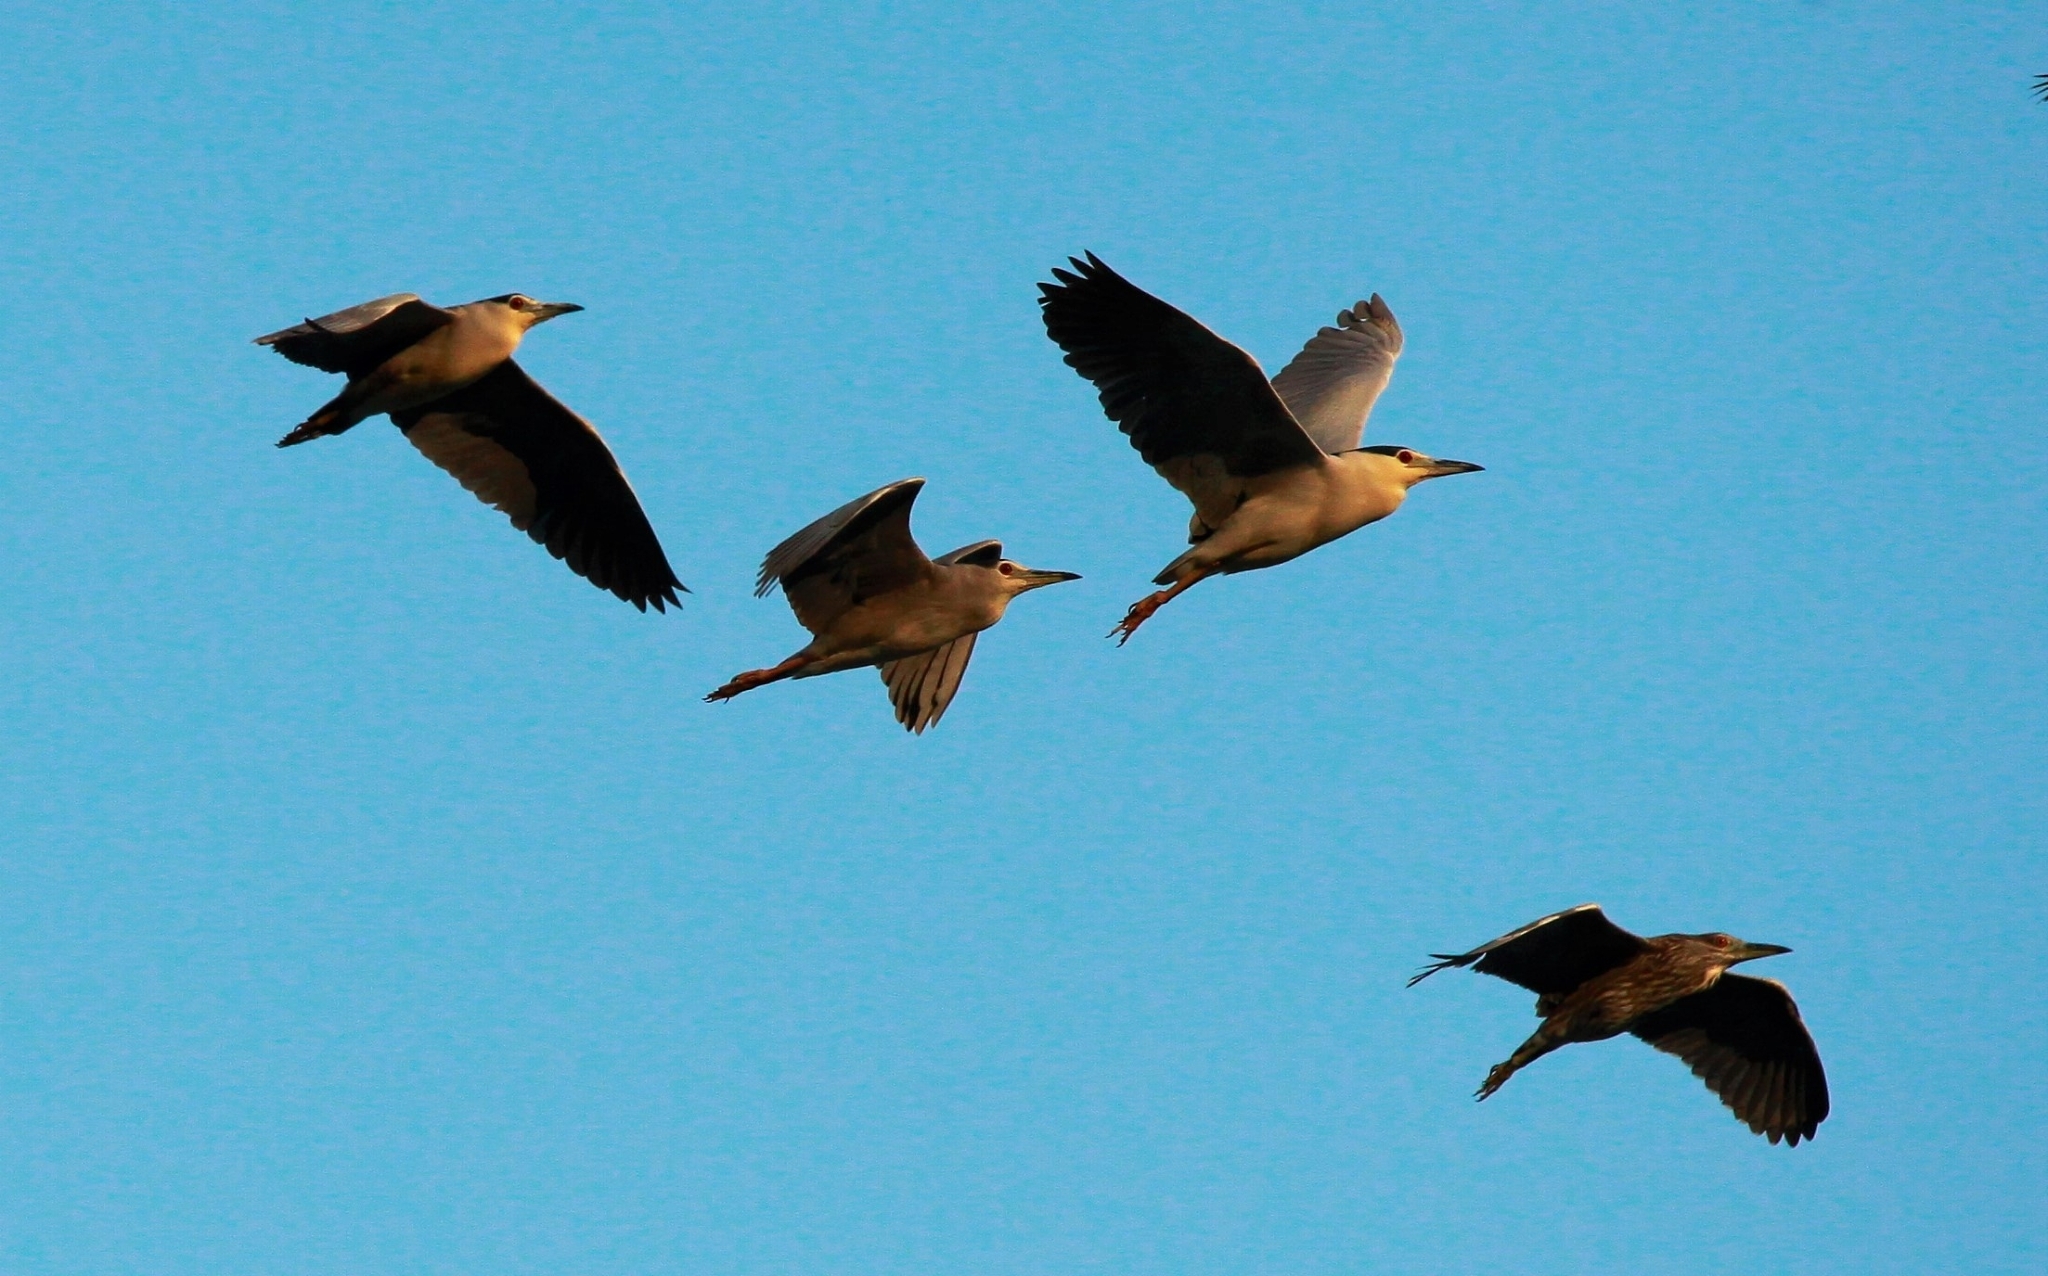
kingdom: Animalia
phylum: Chordata
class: Aves
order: Pelecaniformes
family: Ardeidae
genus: Nycticorax
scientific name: Nycticorax nycticorax
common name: Black-crowned night heron
